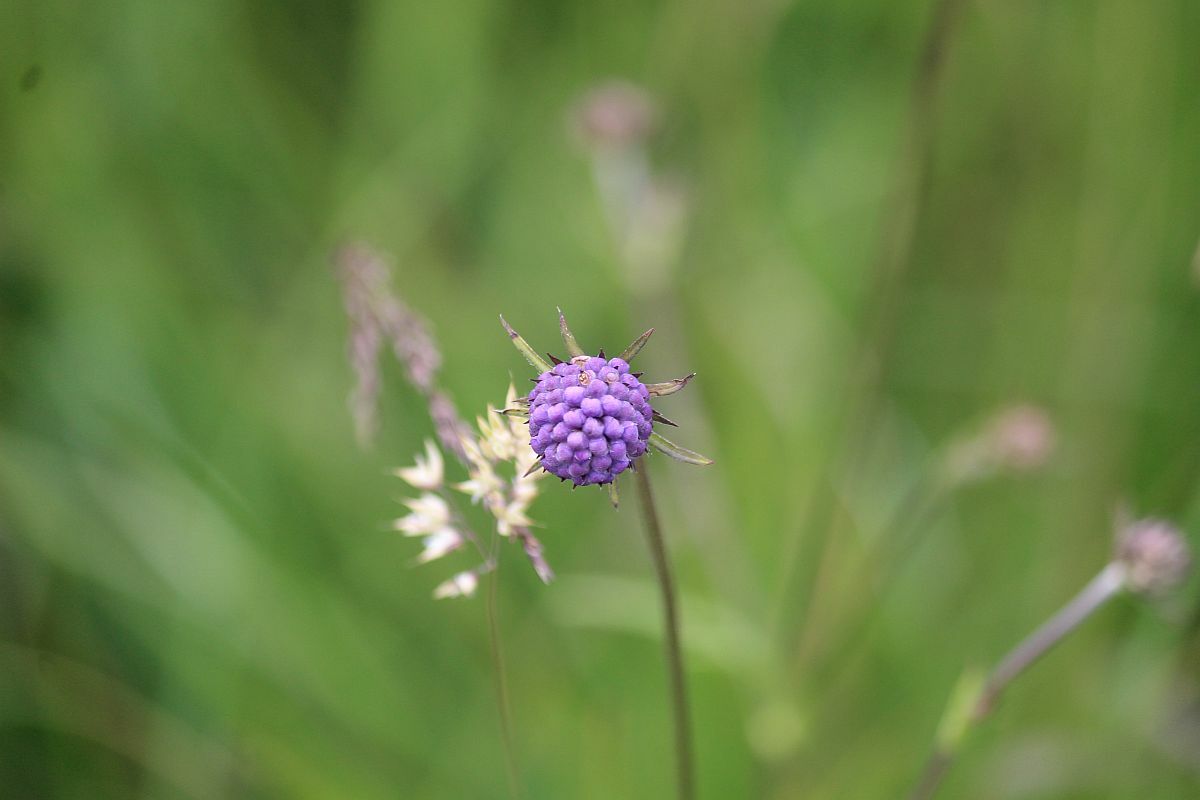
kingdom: Plantae
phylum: Tracheophyta
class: Magnoliopsida
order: Dipsacales
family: Caprifoliaceae
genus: Succisa
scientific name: Succisa pratensis
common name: Devil's-bit
